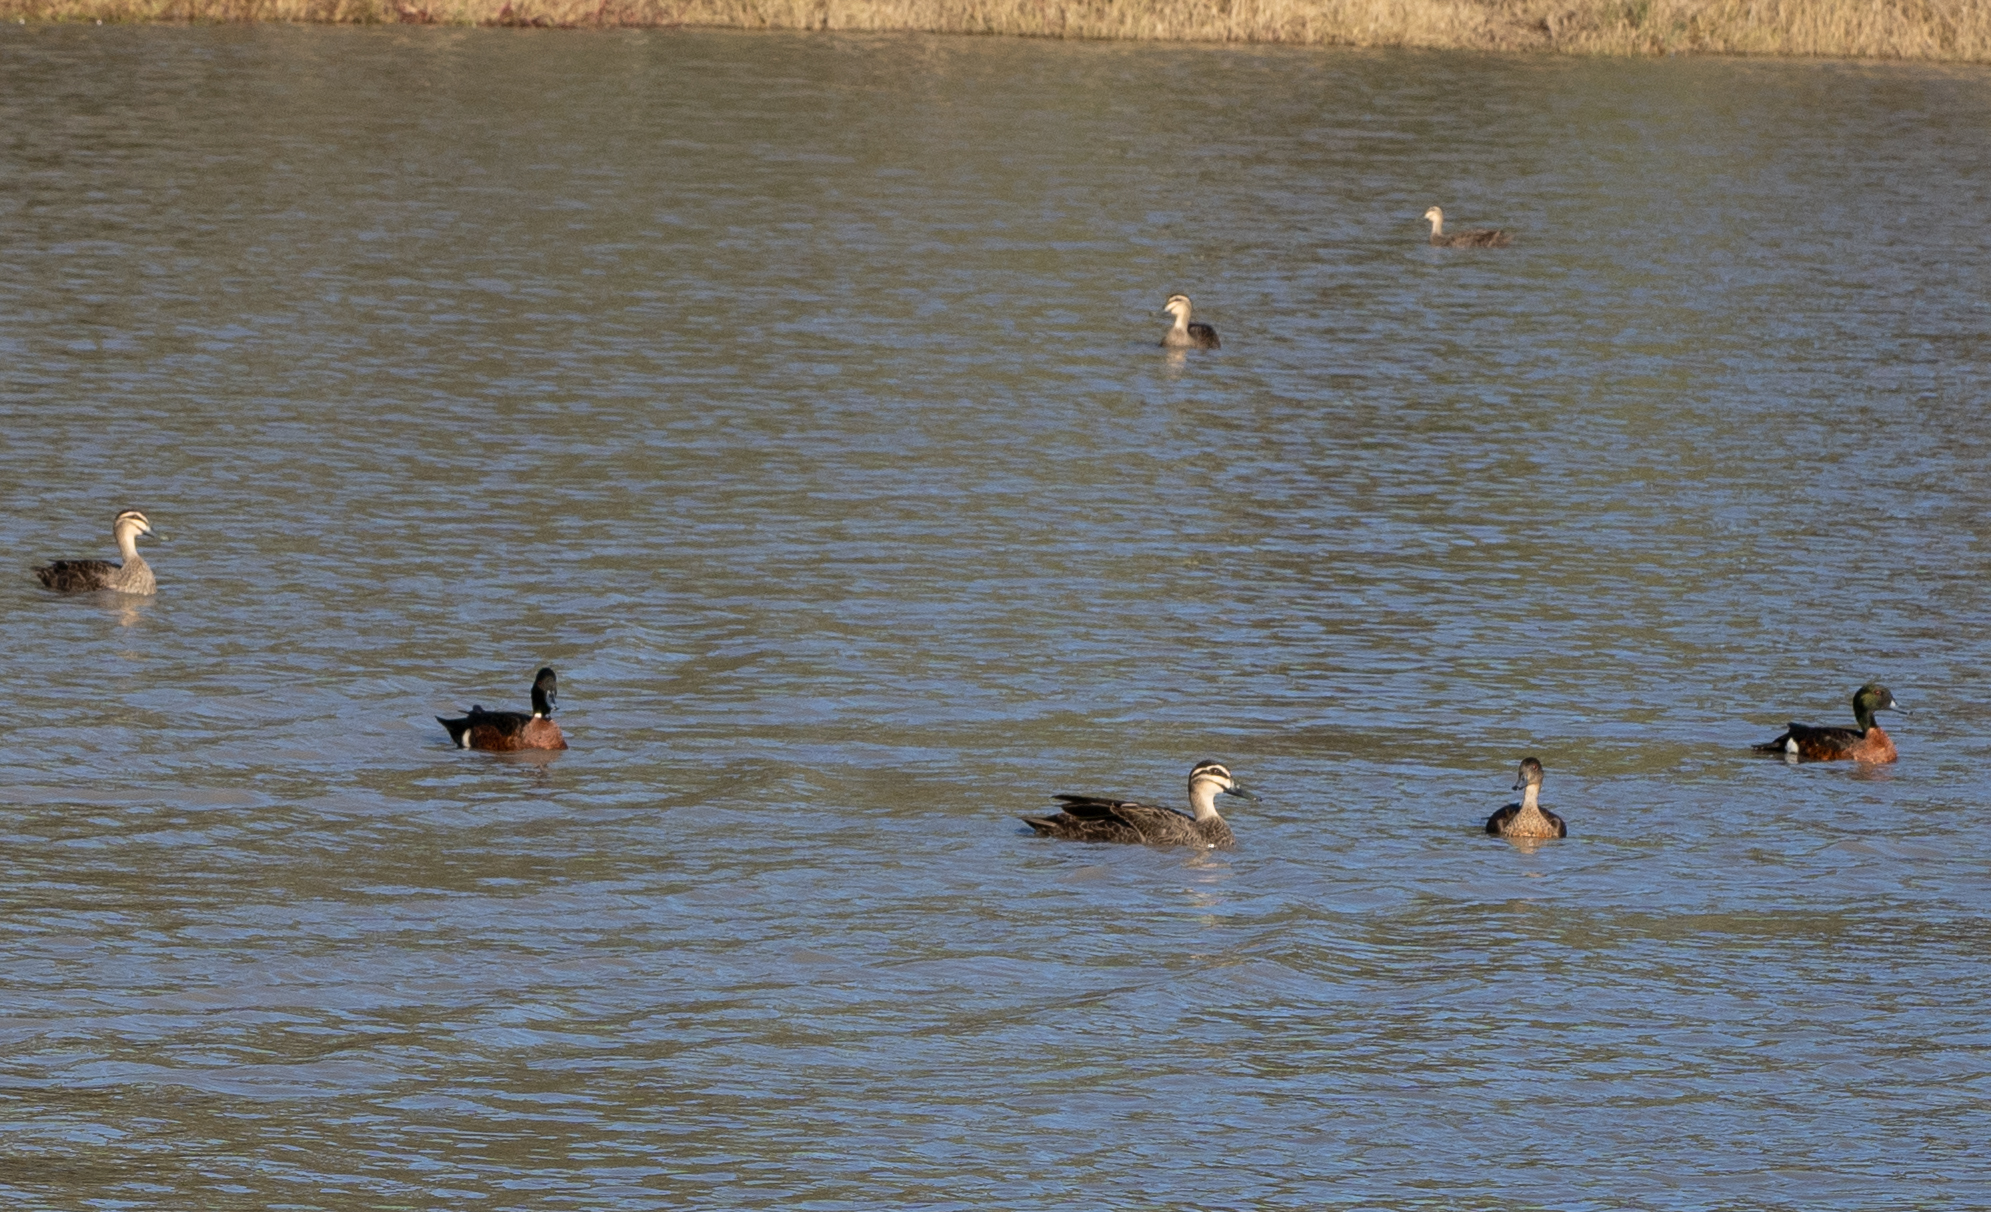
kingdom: Animalia
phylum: Chordata
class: Aves
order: Anseriformes
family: Anatidae
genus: Anas
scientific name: Anas castanea
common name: Chestnut teal
